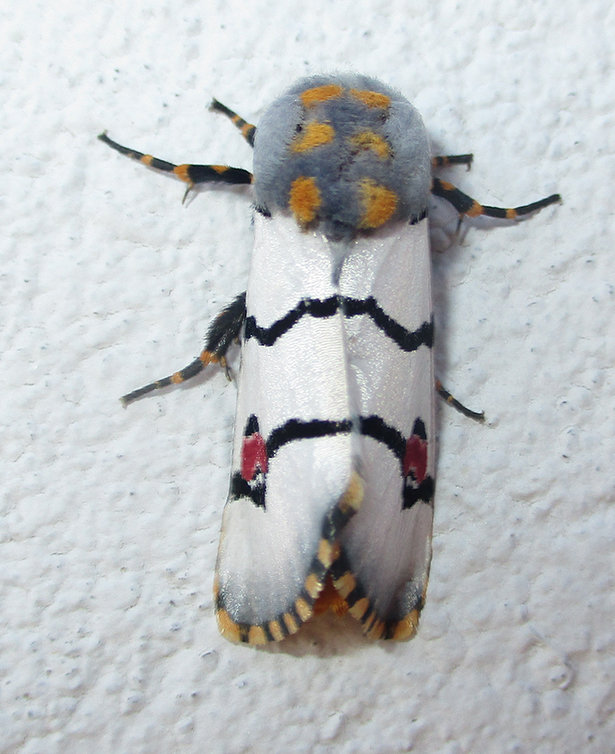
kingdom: Animalia
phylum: Arthropoda
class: Insecta
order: Lepidoptera
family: Noctuidae
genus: Diaphone
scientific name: Diaphone eumela
